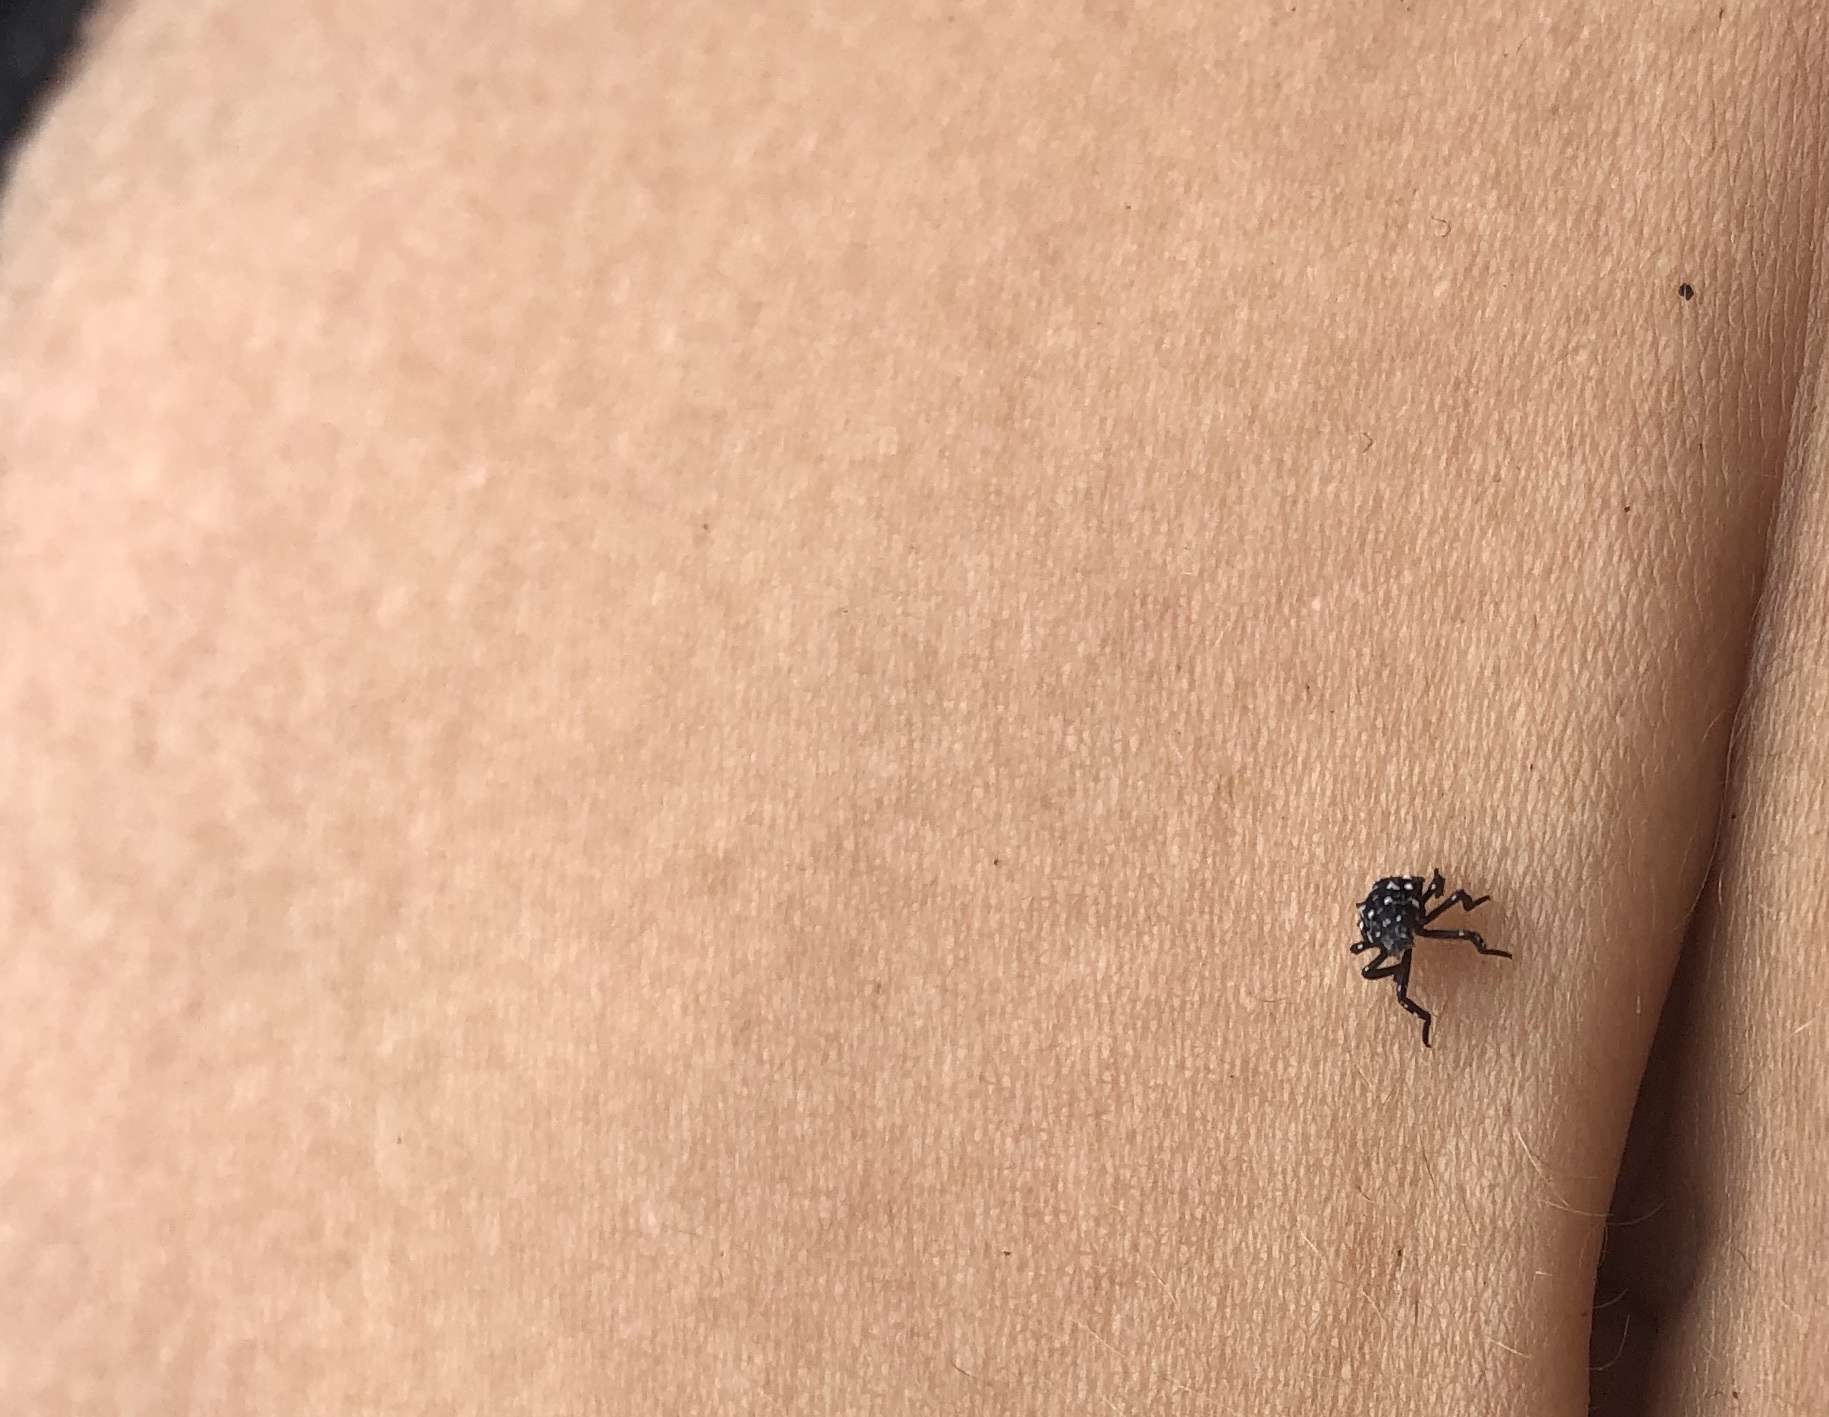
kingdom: Animalia
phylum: Arthropoda
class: Insecta
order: Hemiptera
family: Fulgoridae
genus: Lycorma
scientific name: Lycorma delicatula
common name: Spotted lanternfly
